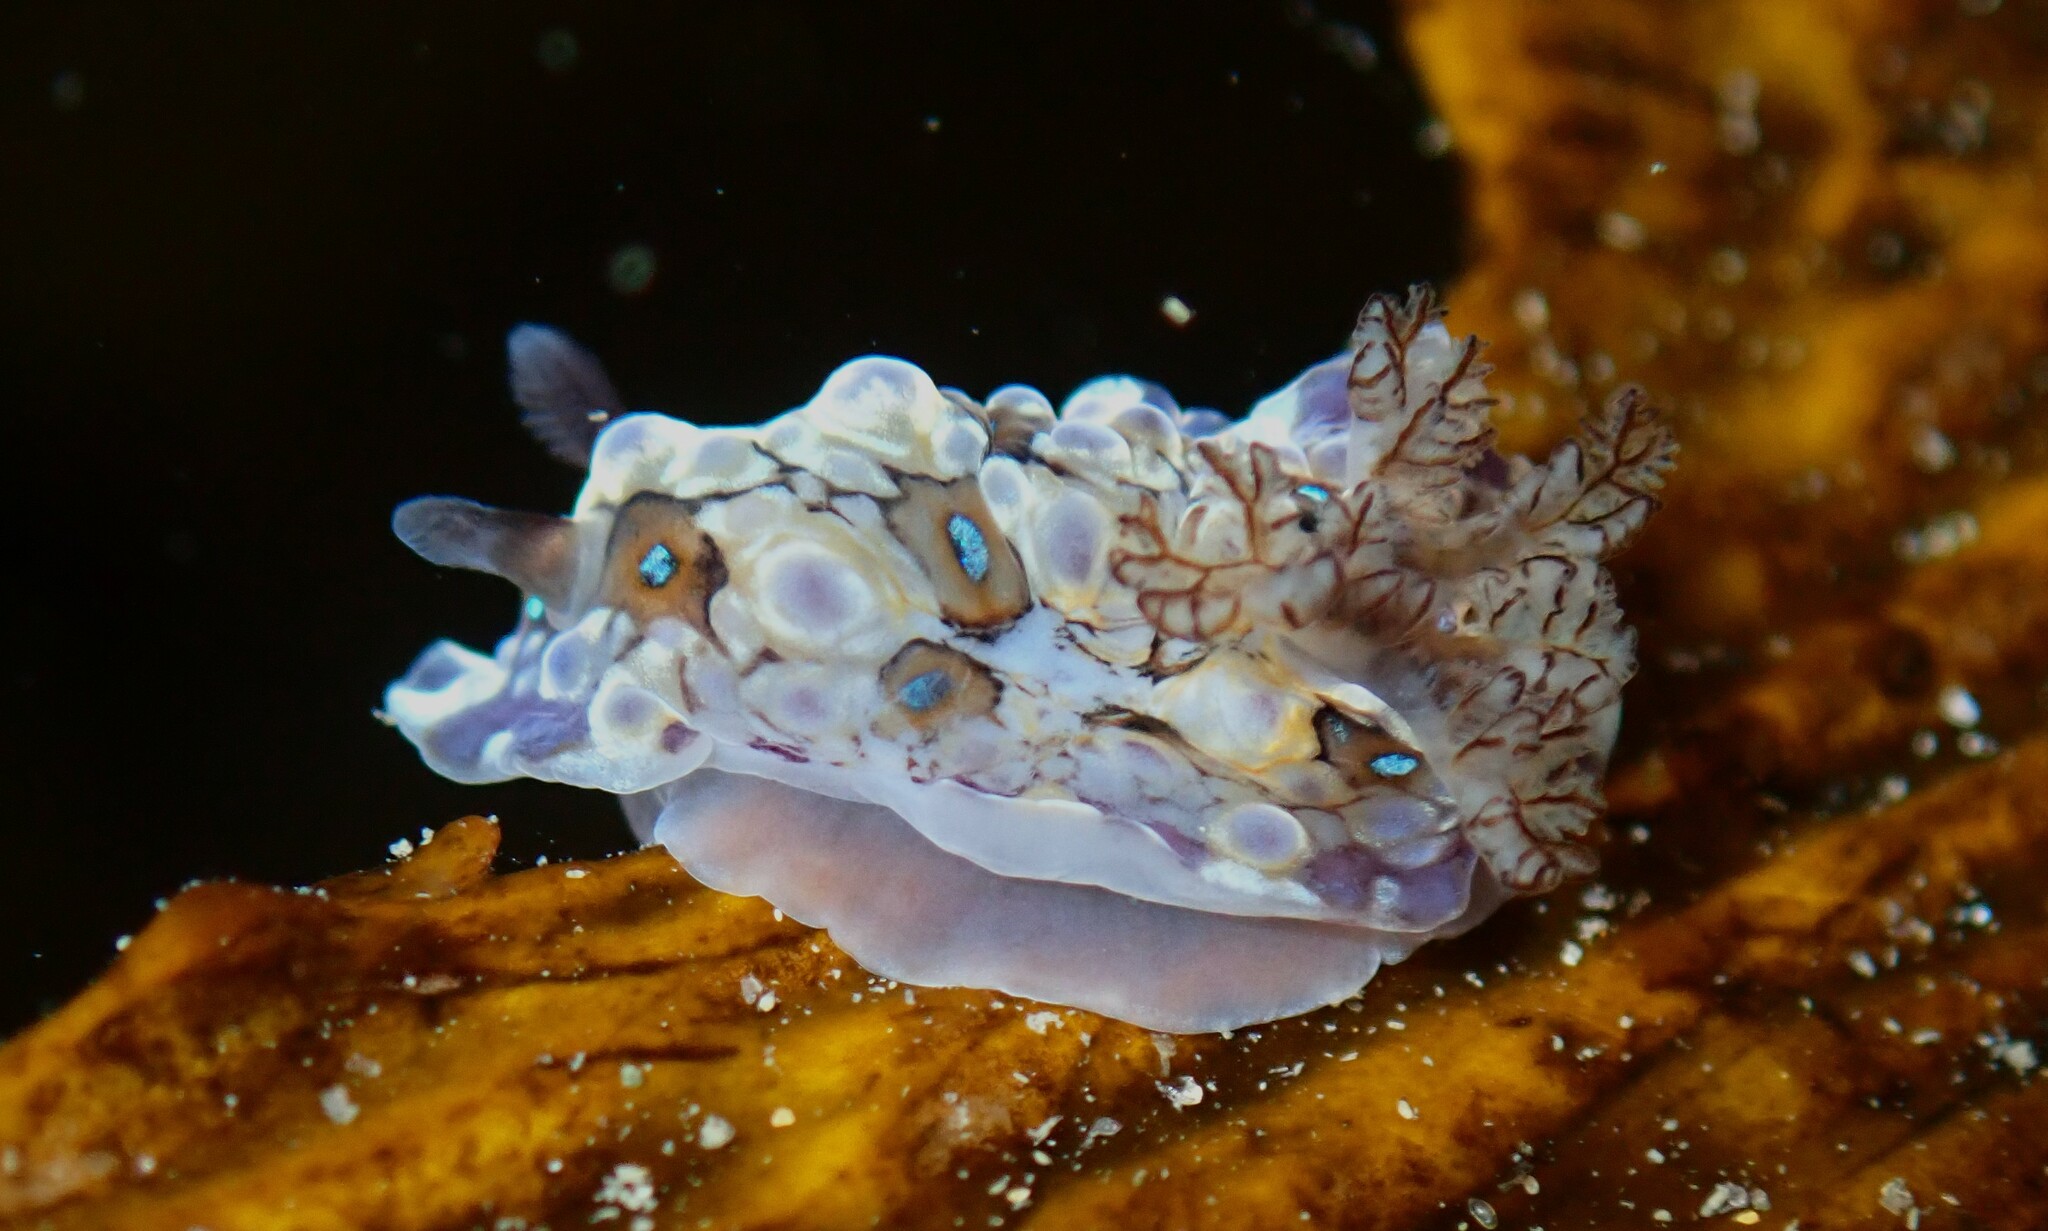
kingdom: Animalia
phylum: Mollusca
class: Gastropoda
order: Nudibranchia
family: Dendrodorididae
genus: Dendrodoris
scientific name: Dendrodoris krusensternii
